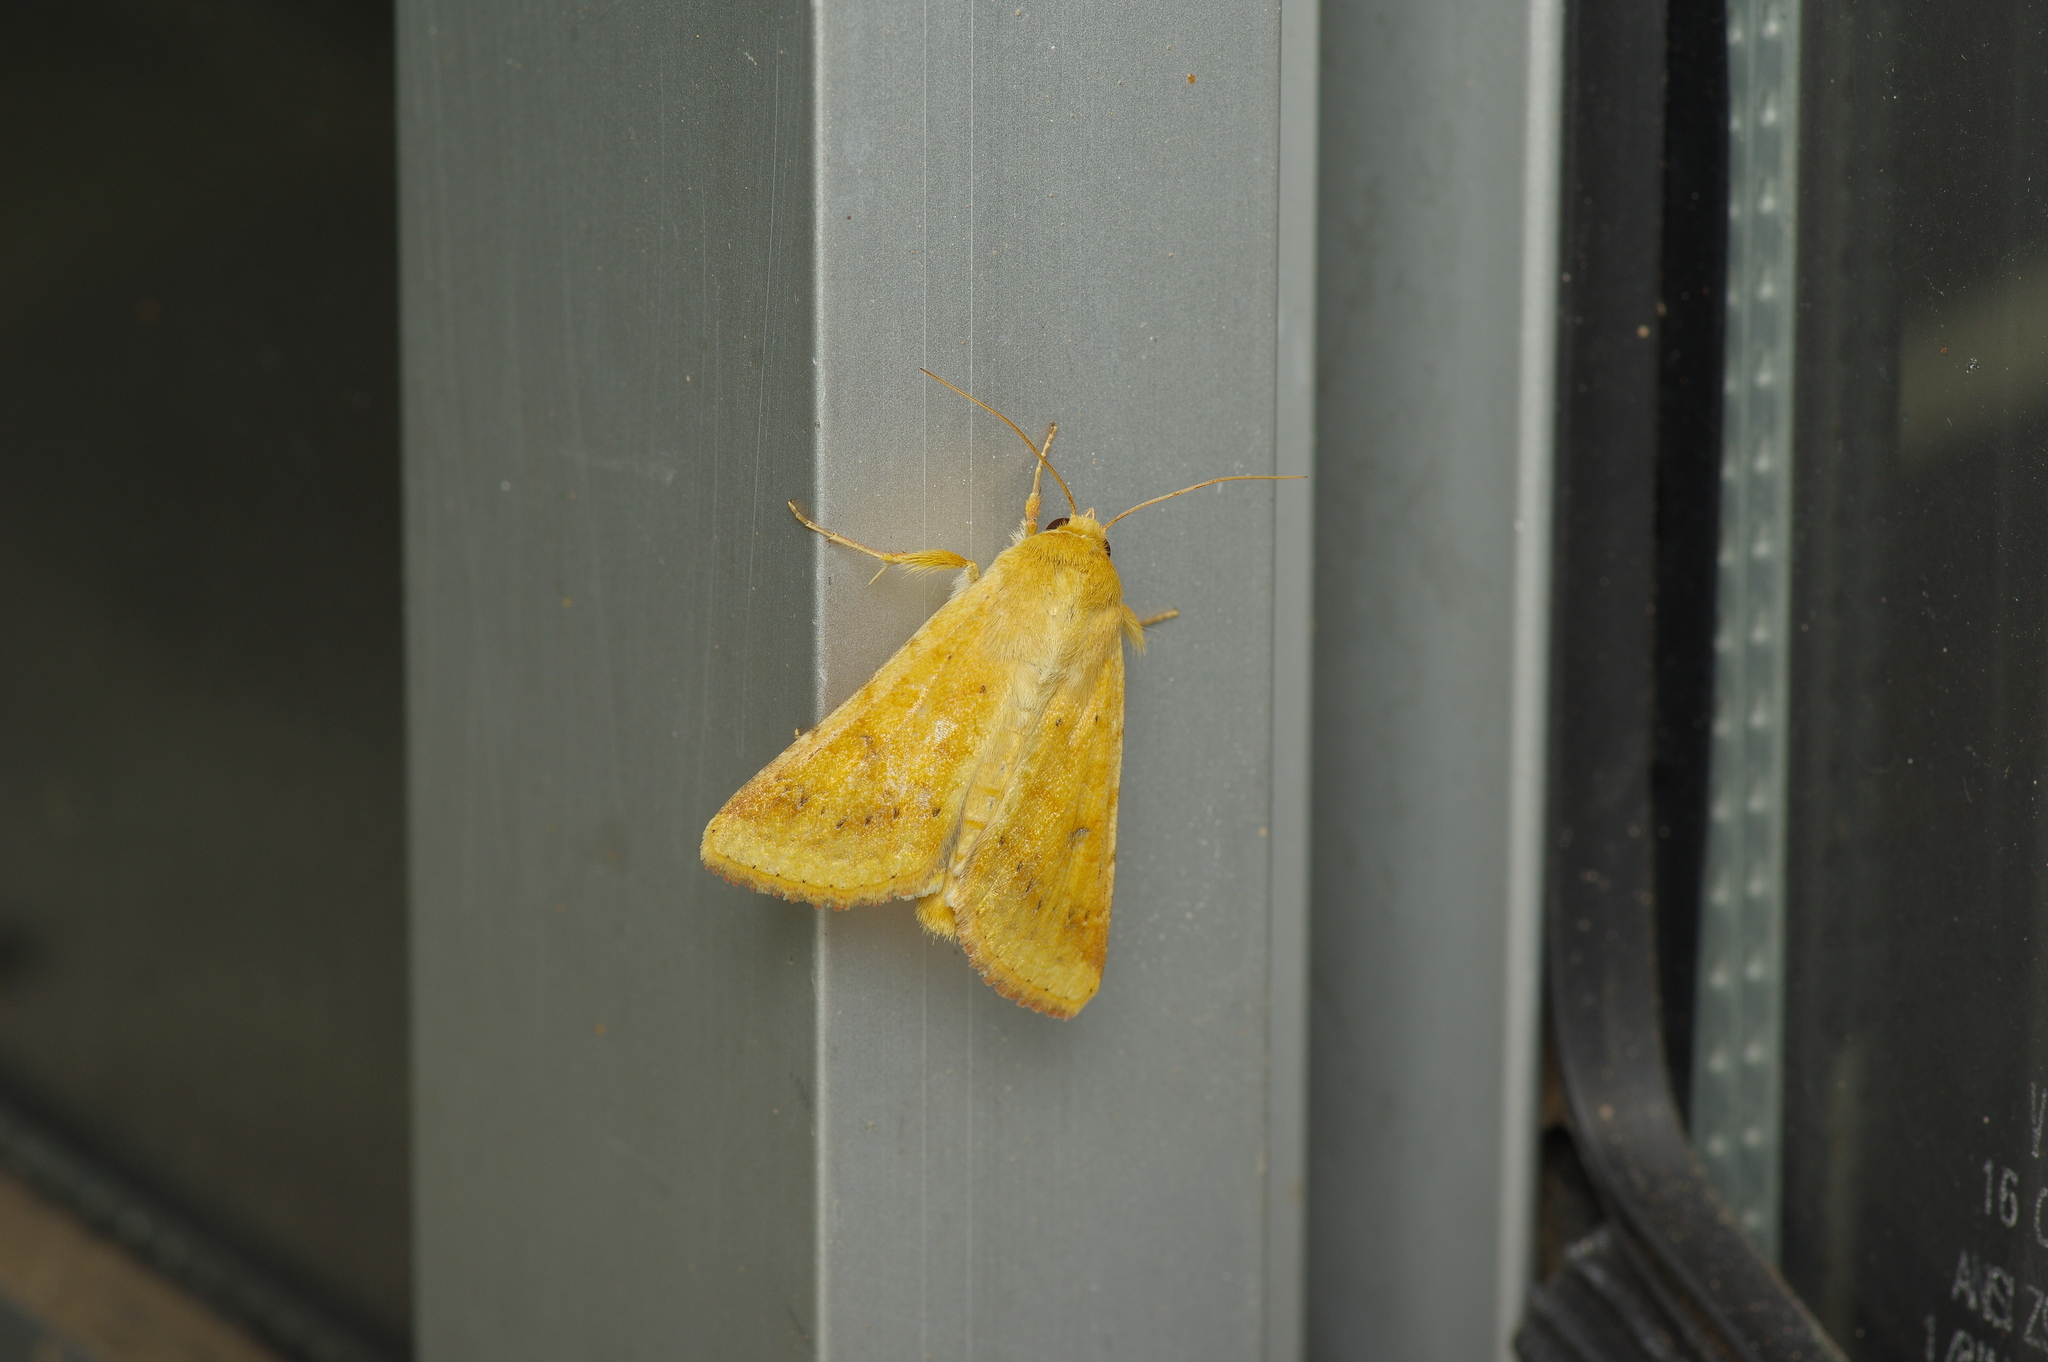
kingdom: Animalia
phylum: Arthropoda
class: Insecta
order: Lepidoptera
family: Noctuidae
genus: Helicoverpa
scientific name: Helicoverpa zea
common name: Bollworm
